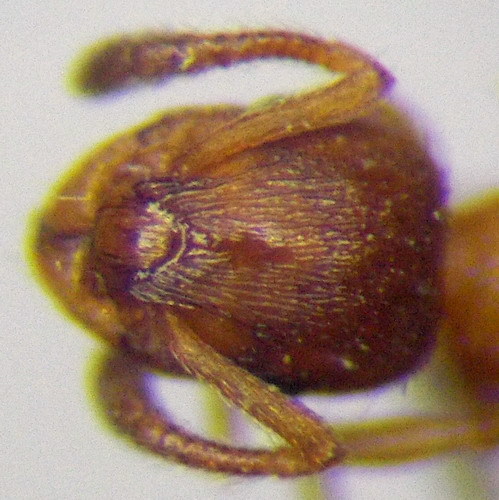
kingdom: Animalia
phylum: Arthropoda
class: Insecta
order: Hymenoptera
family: Formicidae
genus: Leptothorax
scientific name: Leptothorax muscorum
